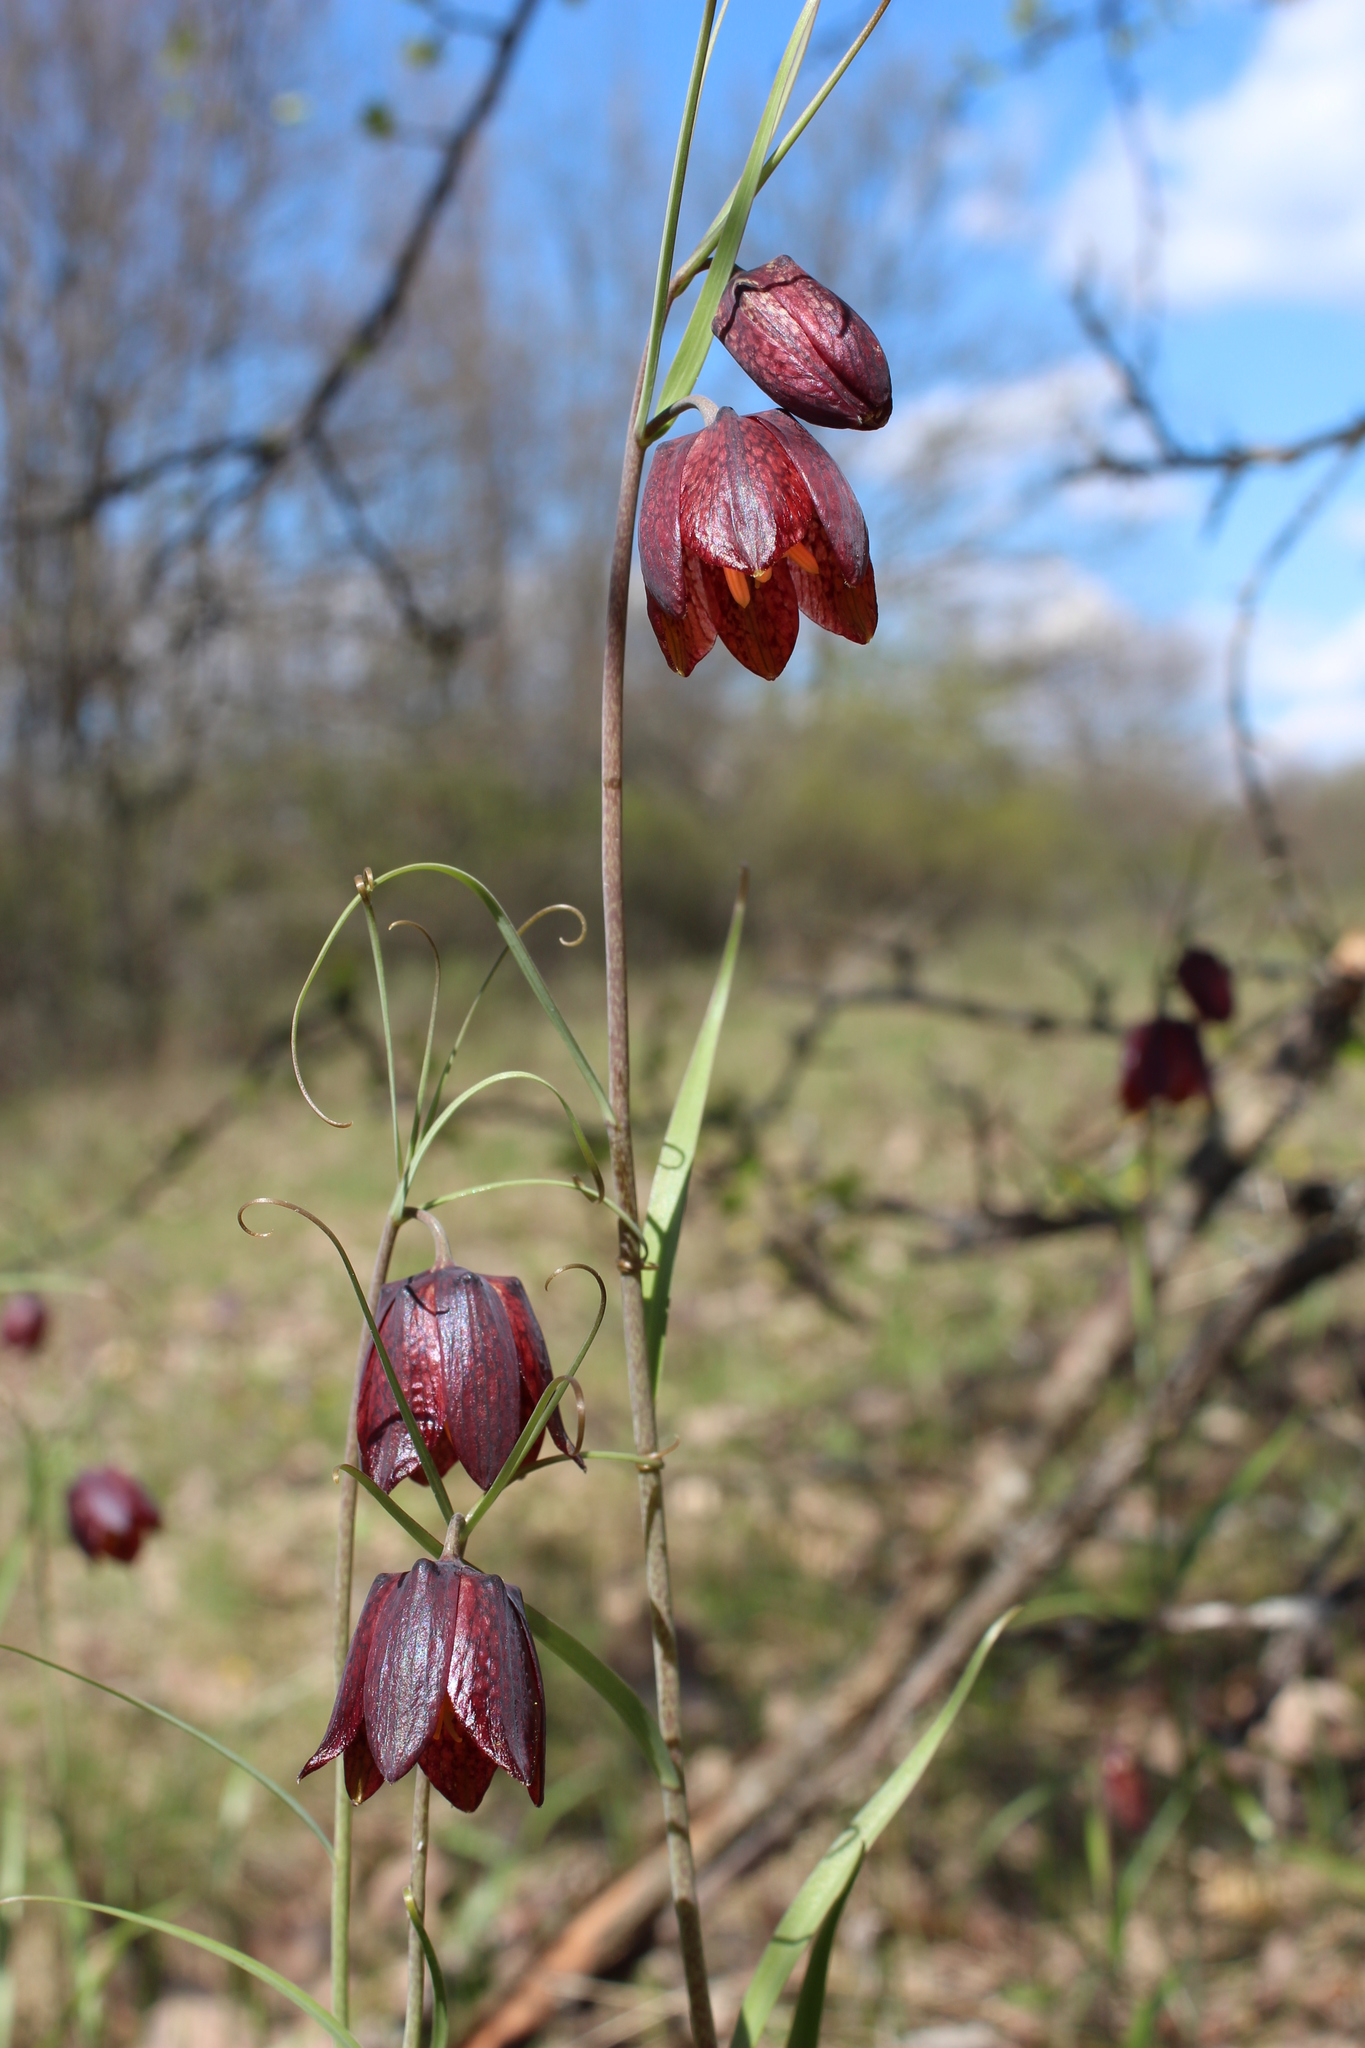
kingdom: Plantae
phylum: Tracheophyta
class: Liliopsida
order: Liliales
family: Liliaceae
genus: Fritillaria
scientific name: Fritillaria ruthenica
